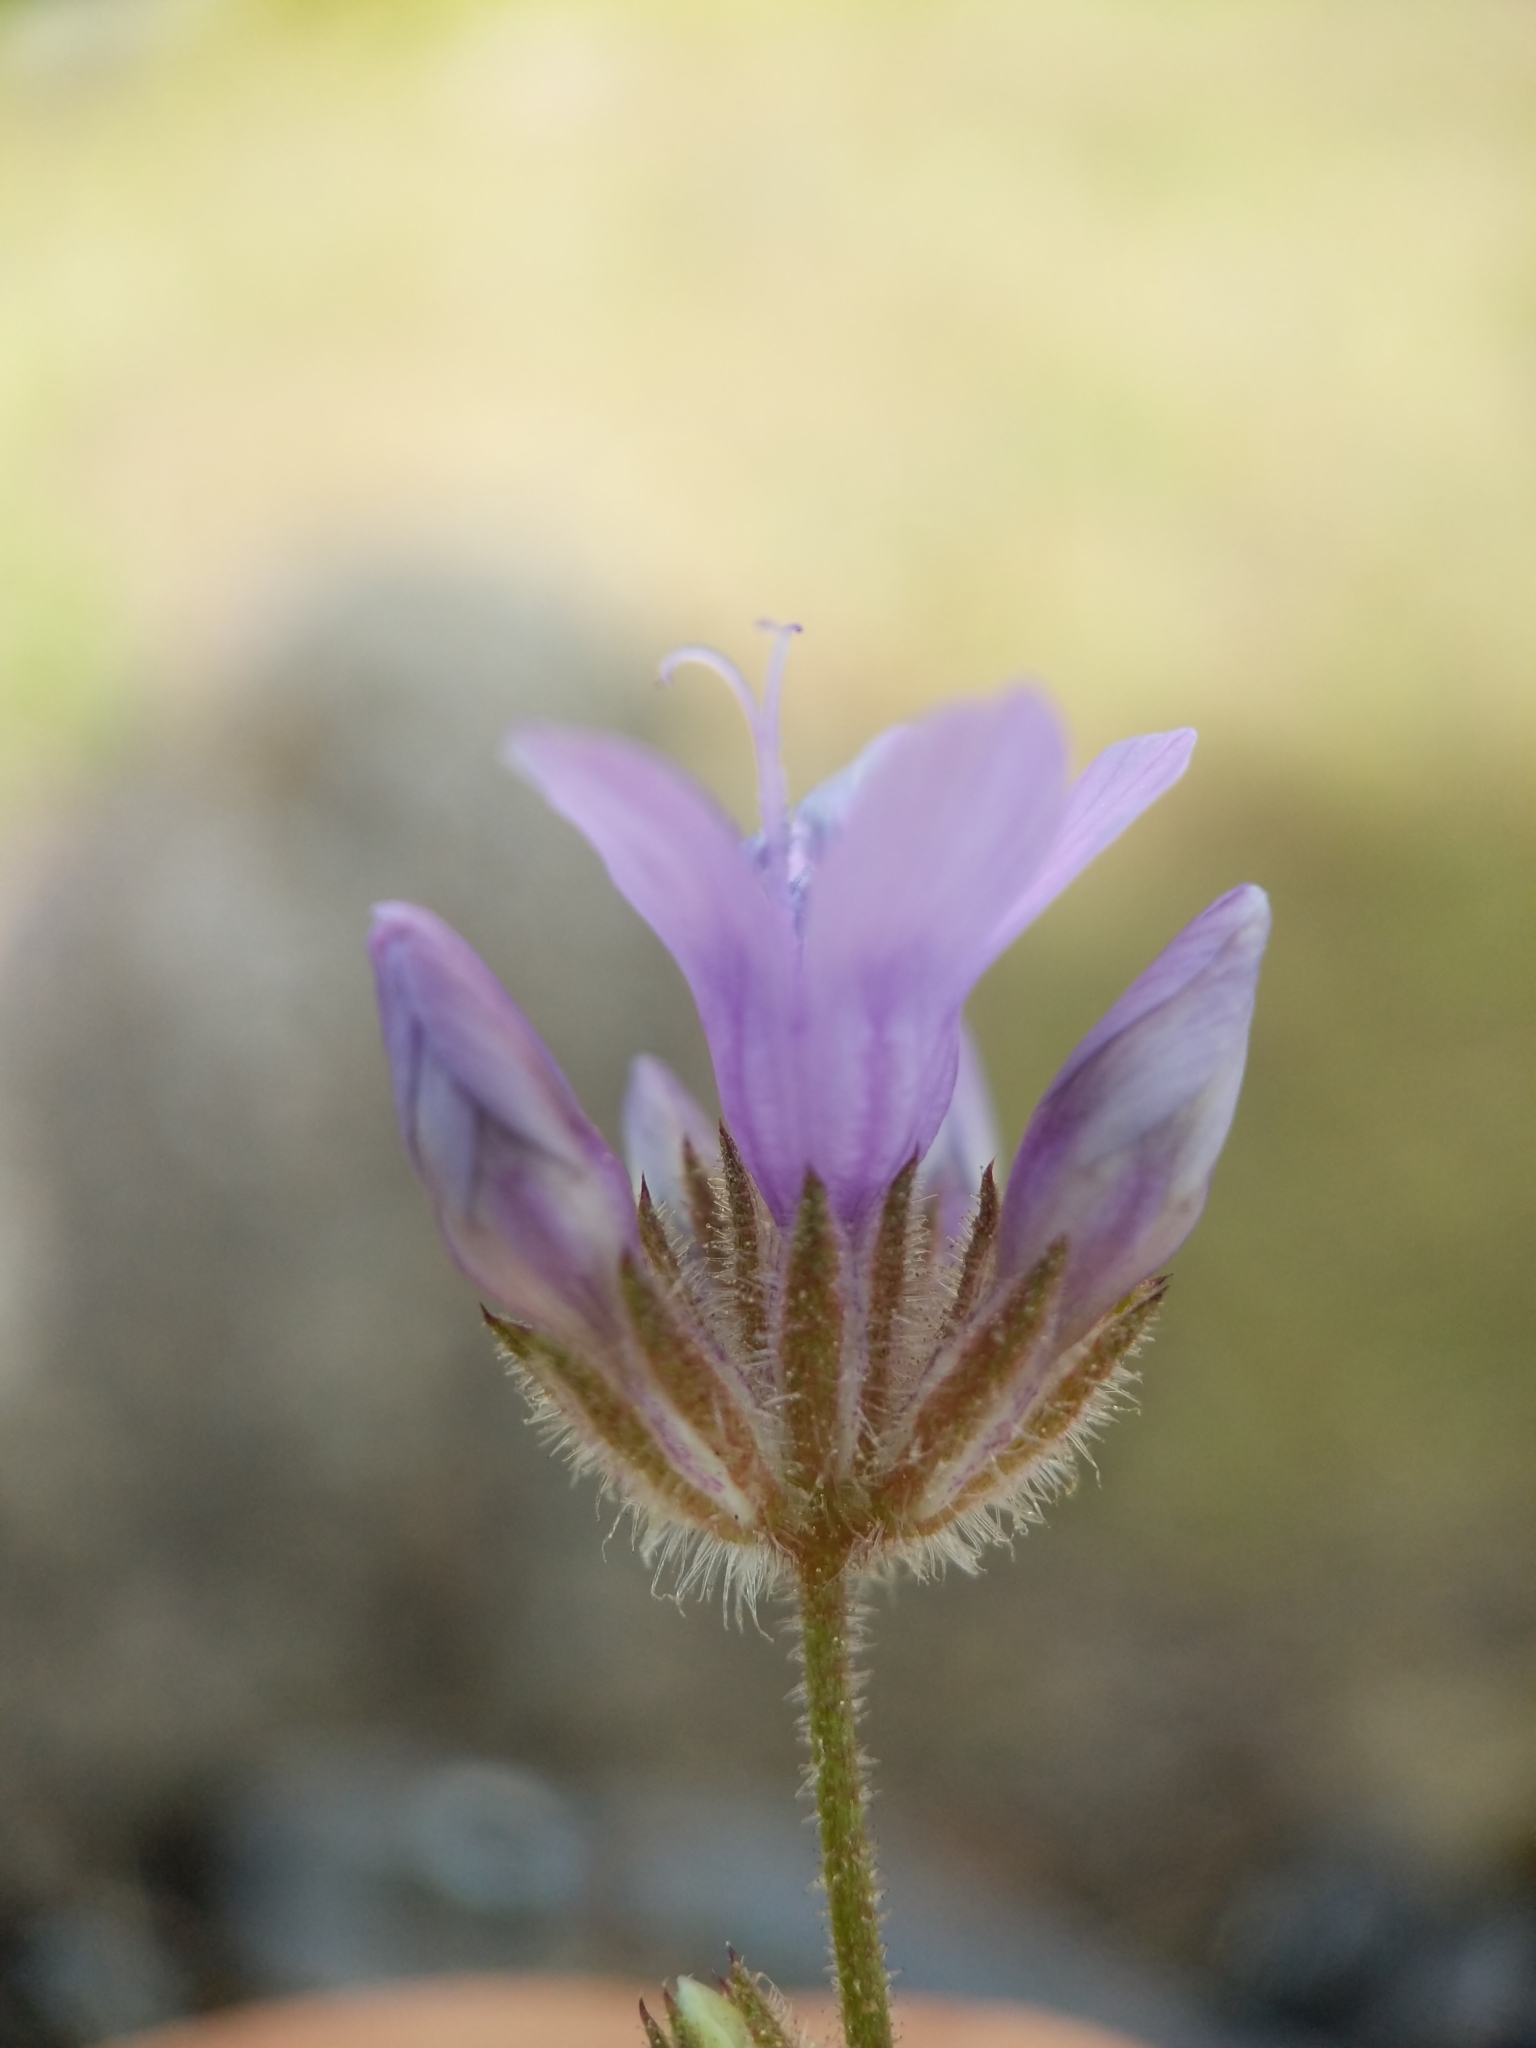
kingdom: Plantae
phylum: Tracheophyta
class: Magnoliopsida
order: Ericales
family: Polemoniaceae
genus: Gilia
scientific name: Gilia achilleifolia
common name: California gily-flower
